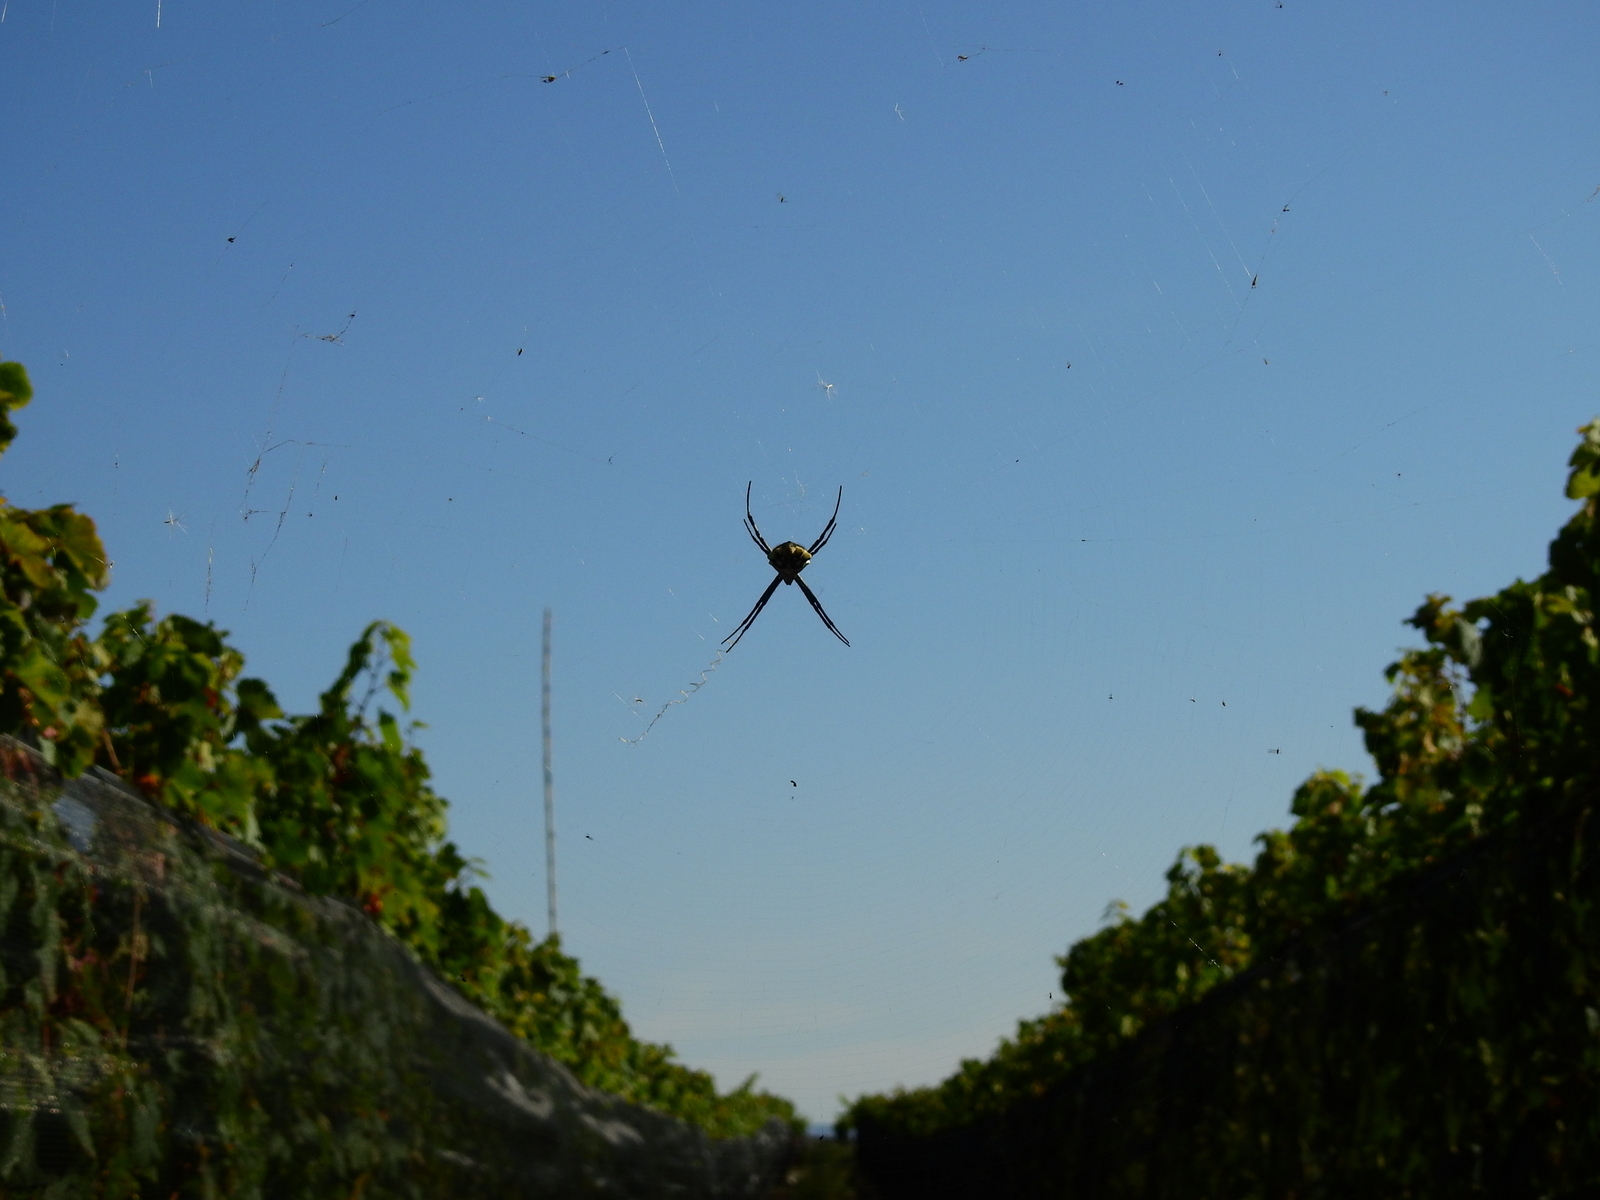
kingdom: Animalia
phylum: Arthropoda
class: Arachnida
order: Araneae
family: Araneidae
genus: Argiope
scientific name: Argiope argentata
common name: Orb weavers
